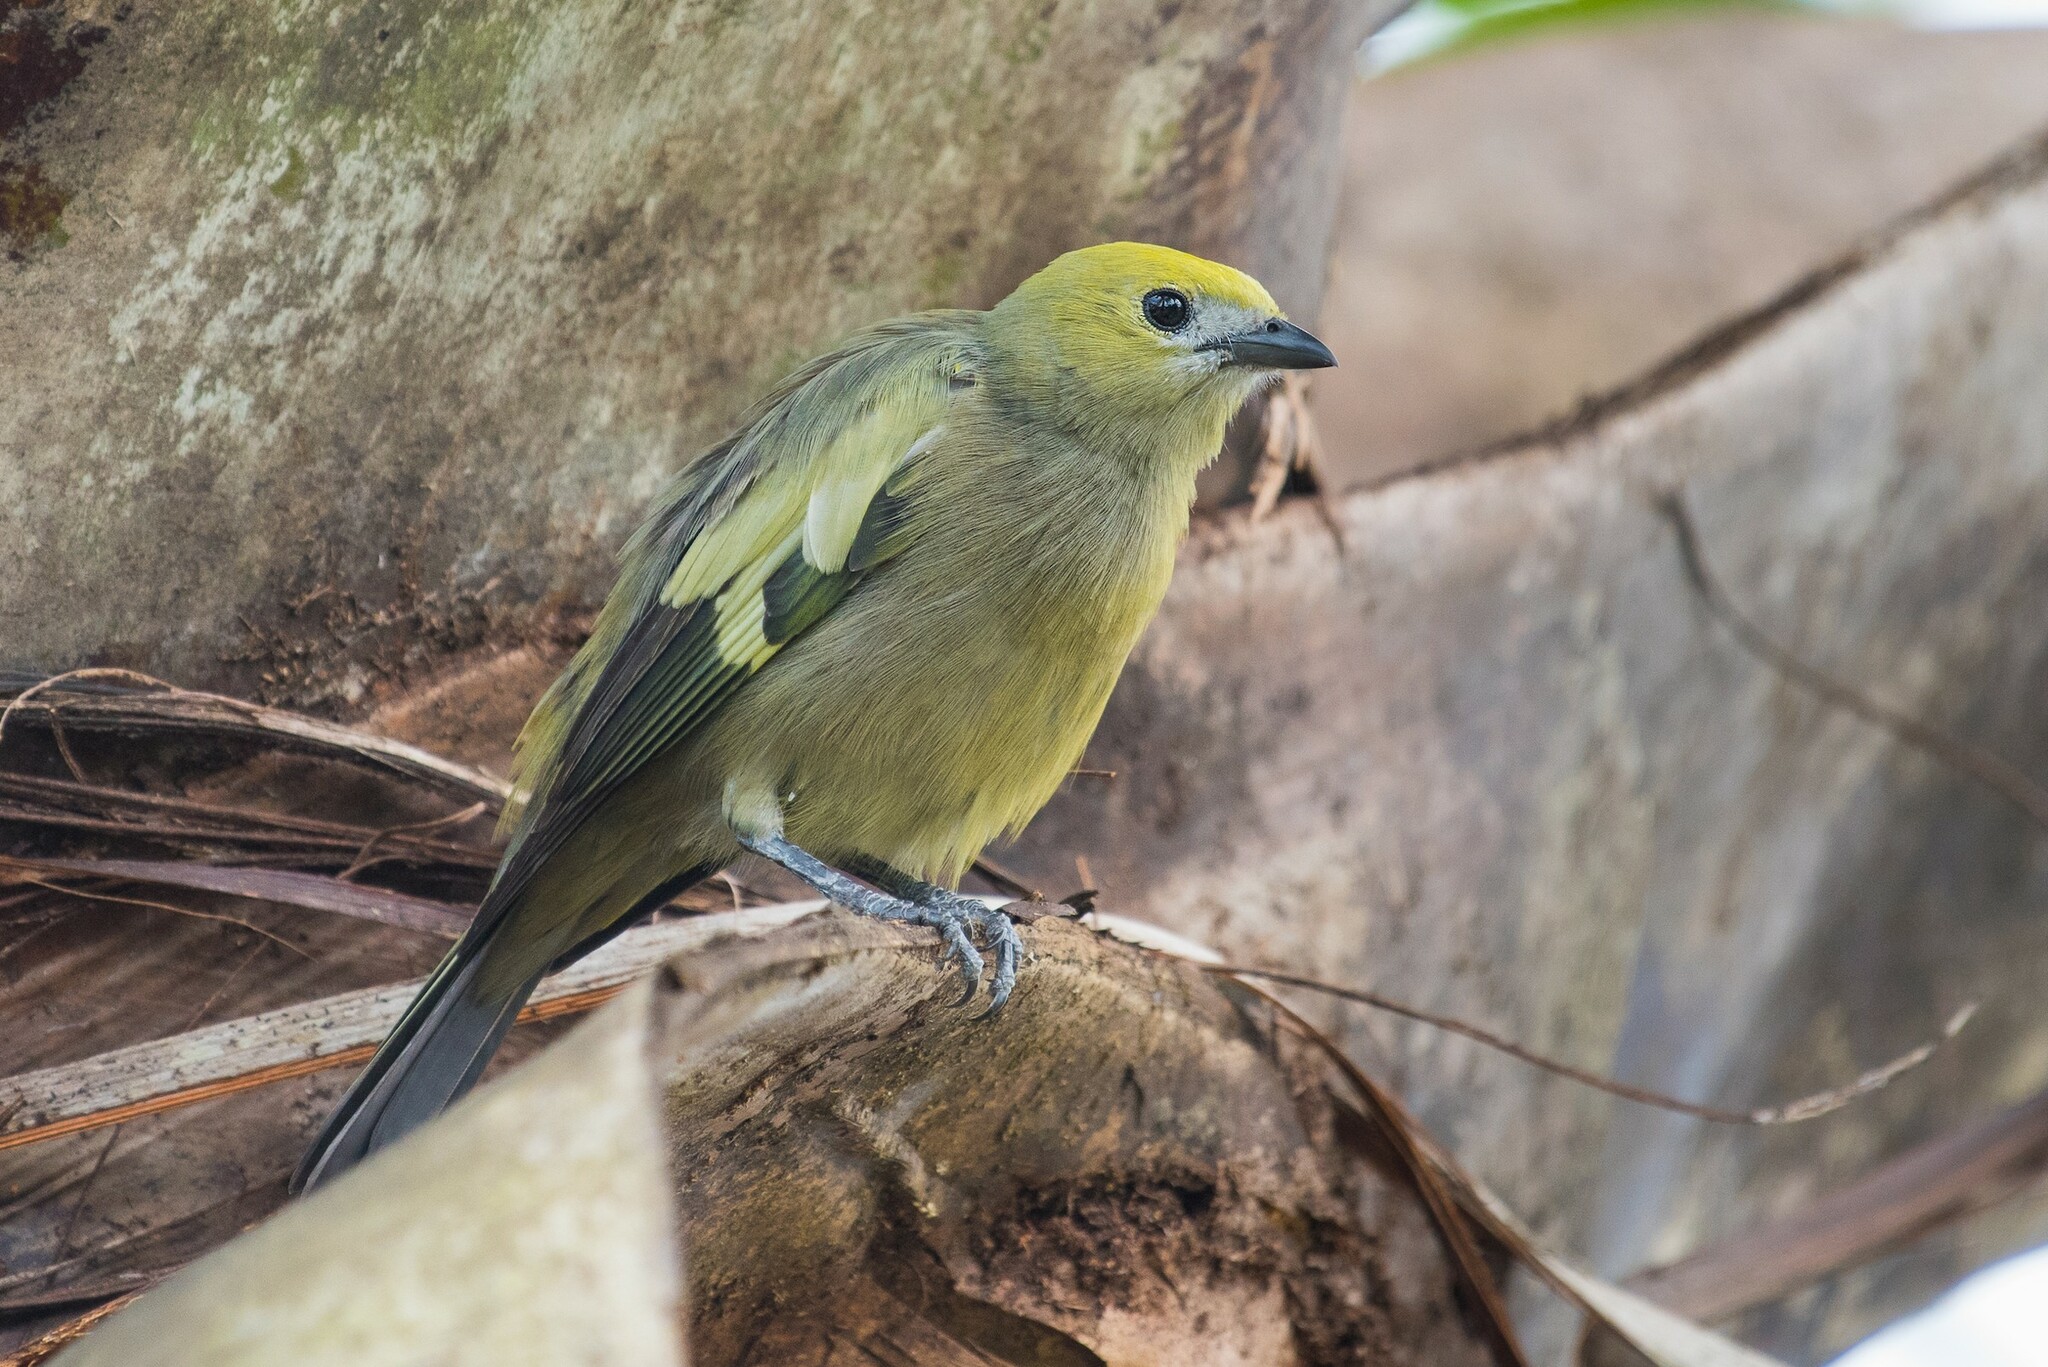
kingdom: Animalia
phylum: Chordata
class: Aves
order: Passeriformes
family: Thraupidae
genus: Thraupis
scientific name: Thraupis palmarum
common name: Palm tanager
